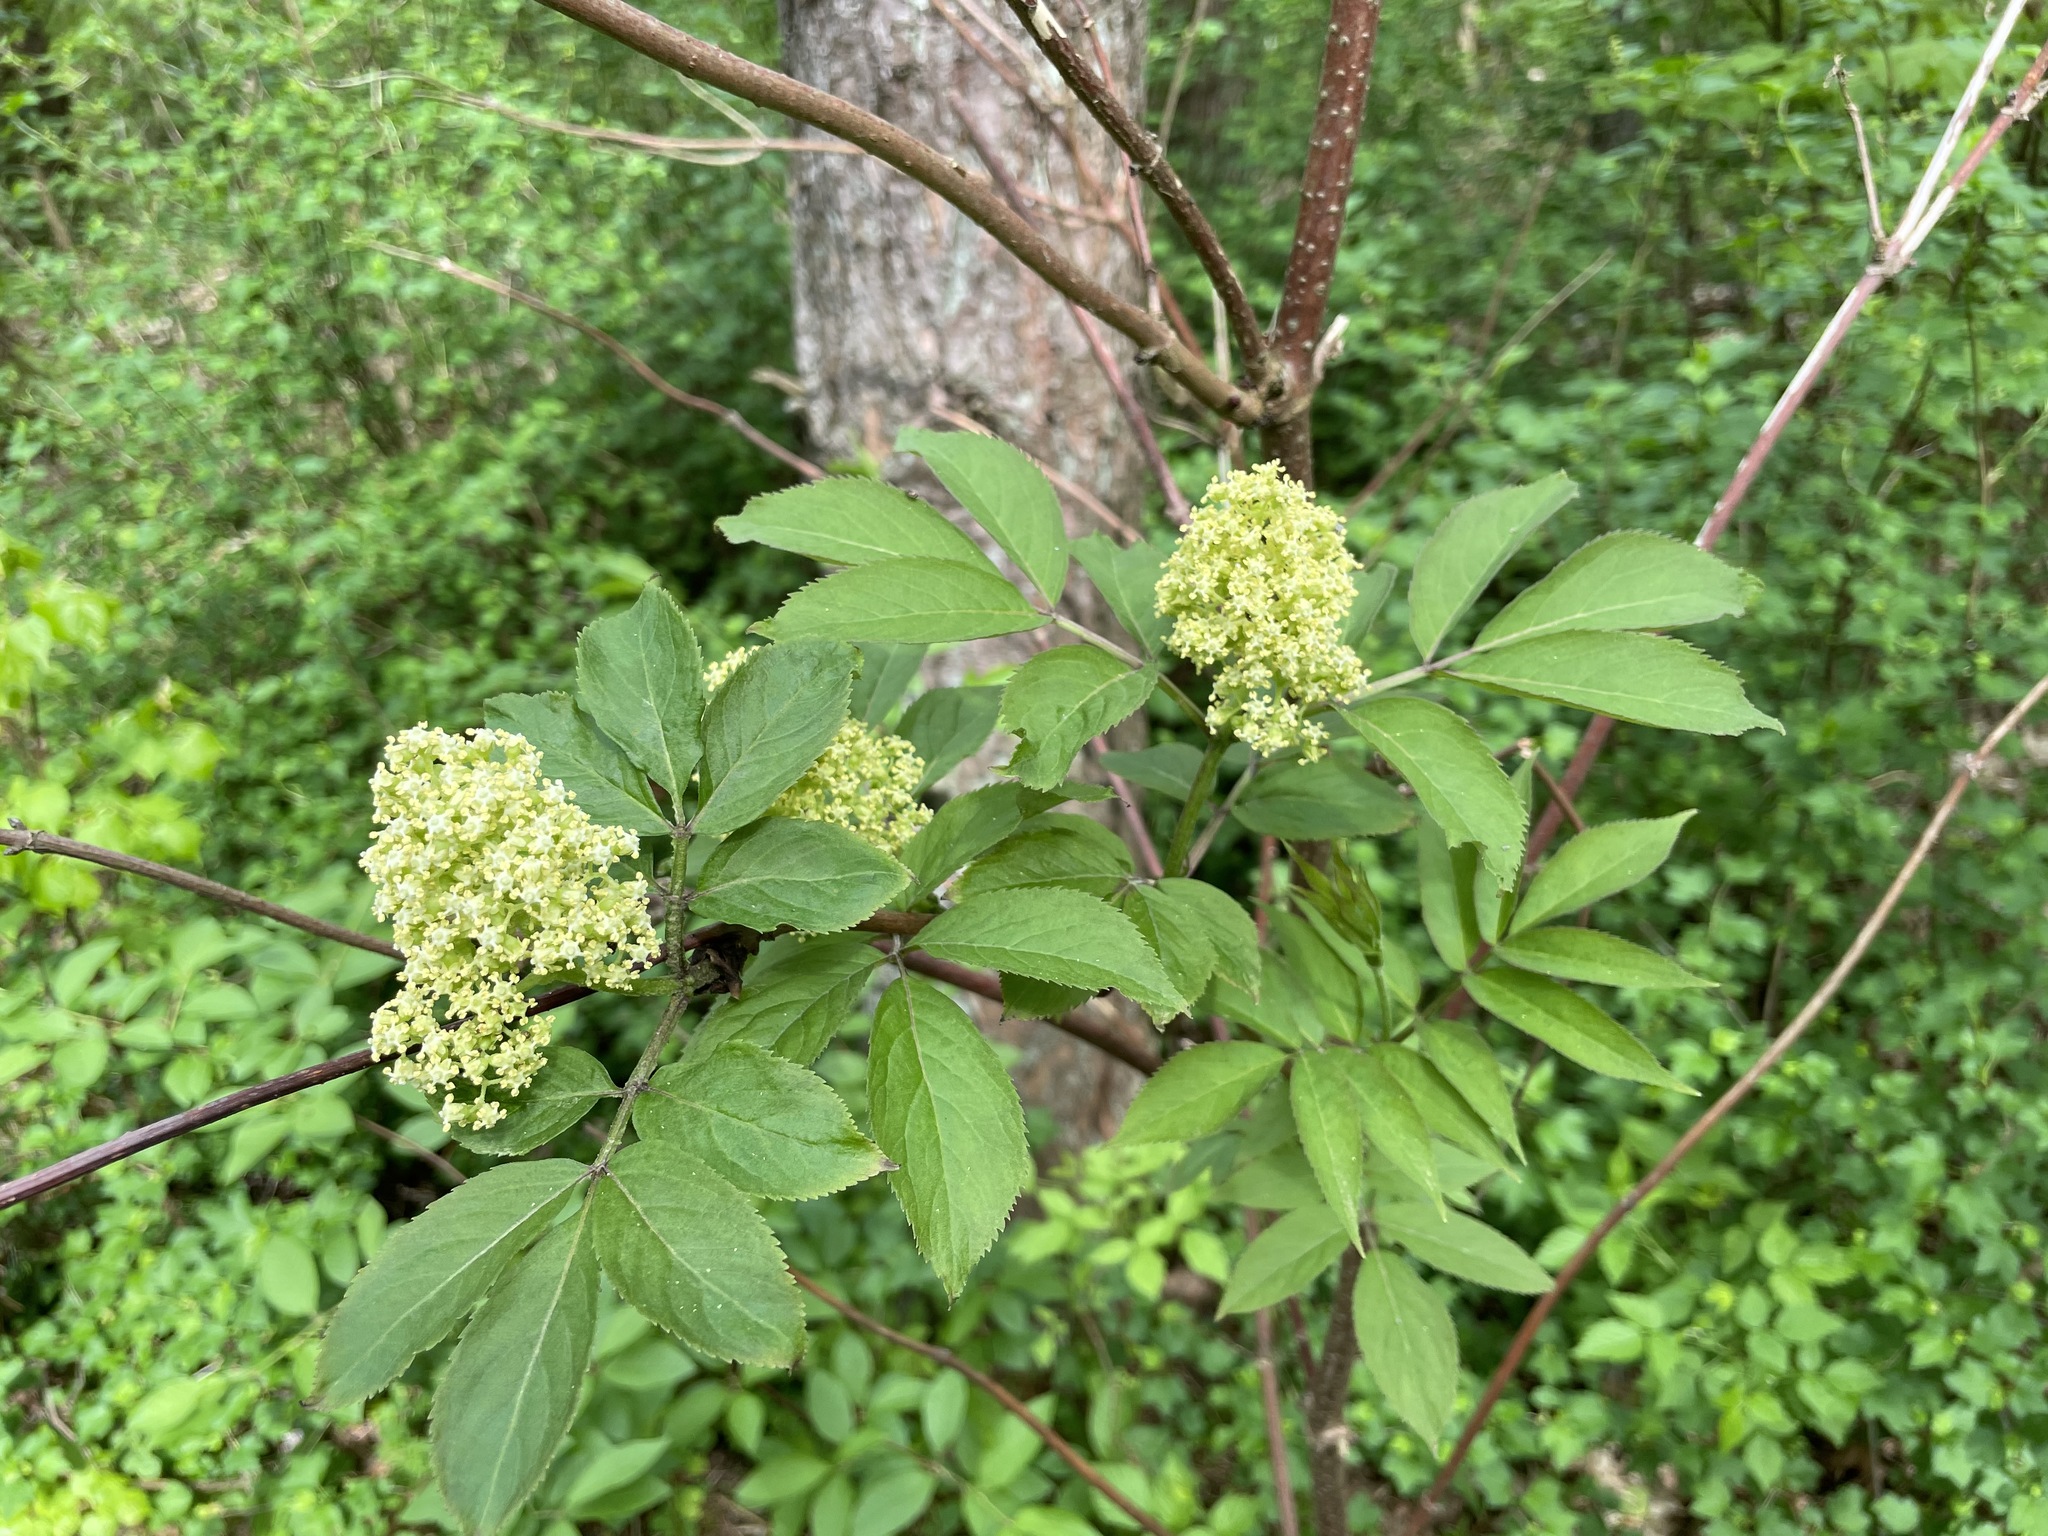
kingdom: Plantae
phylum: Tracheophyta
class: Magnoliopsida
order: Dipsacales
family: Viburnaceae
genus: Sambucus
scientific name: Sambucus racemosa
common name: Red-berried elder
